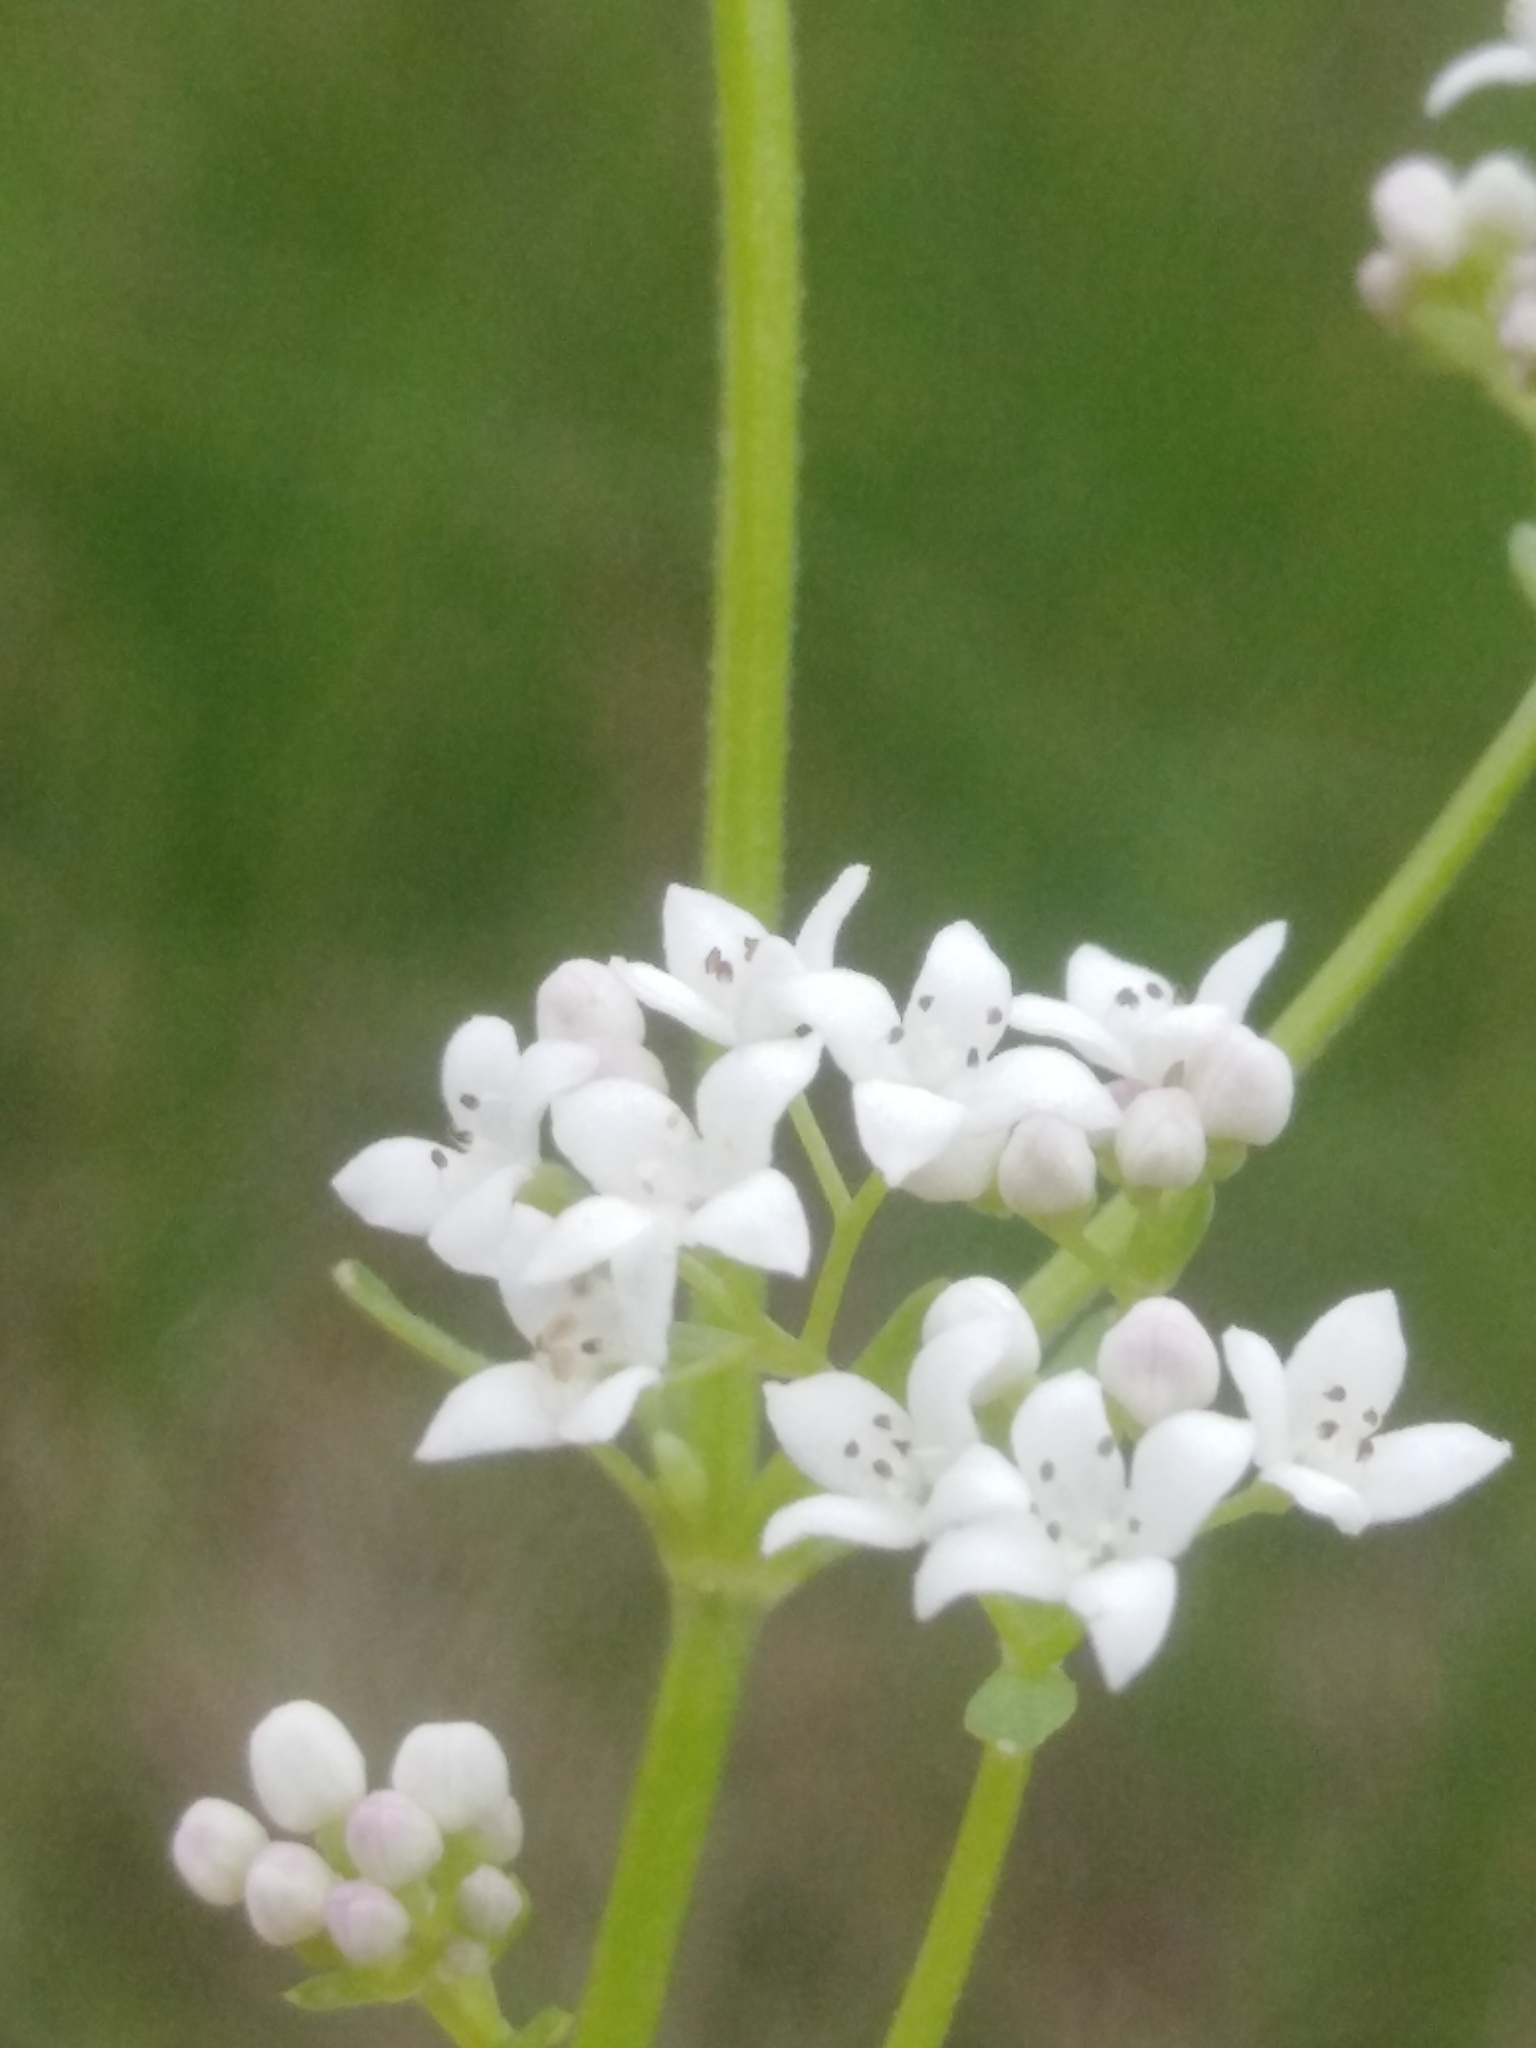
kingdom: Plantae
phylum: Tracheophyta
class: Magnoliopsida
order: Gentianales
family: Rubiaceae
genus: Galium
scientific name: Galium palustre
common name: Common marsh-bedstraw
